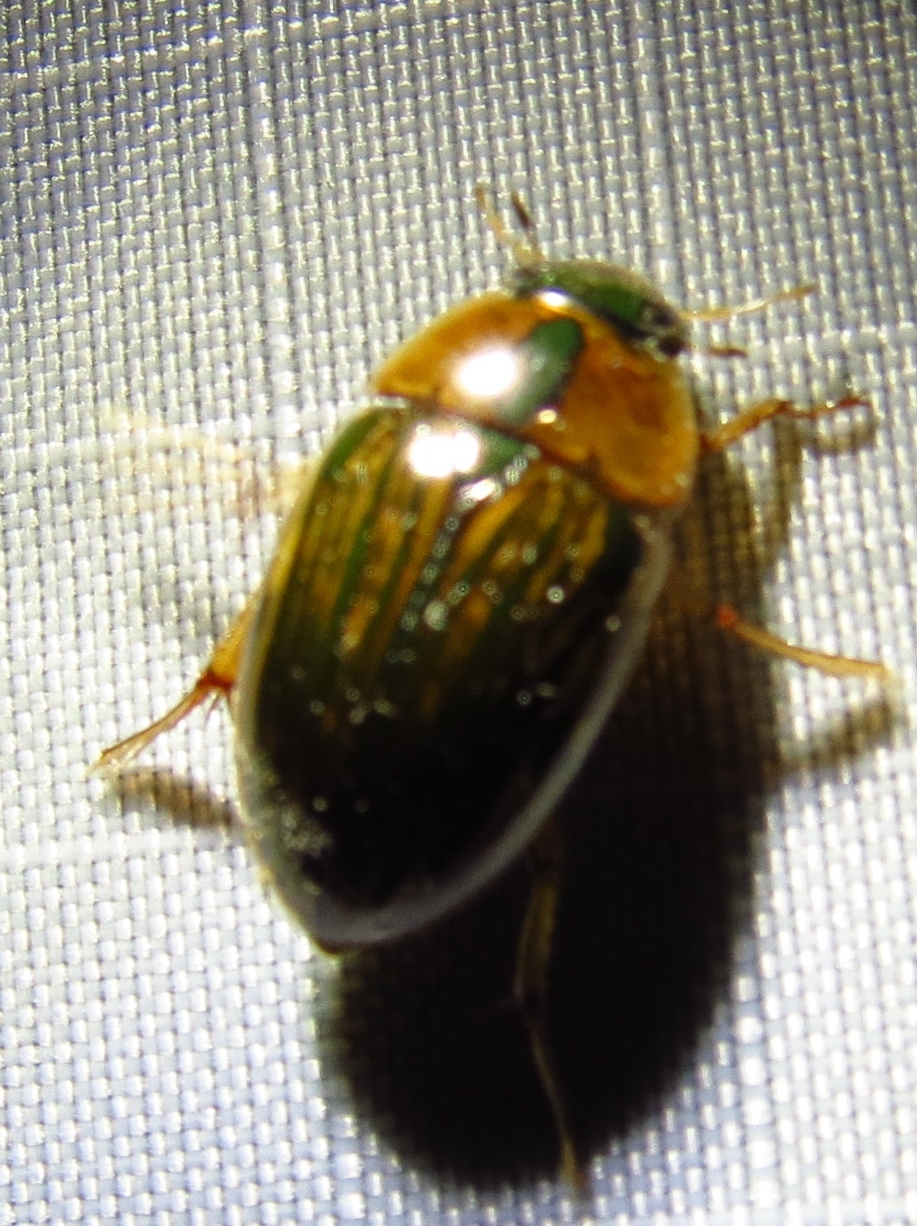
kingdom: Animalia
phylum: Arthropoda
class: Insecta
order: Coleoptera
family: Hydrophilidae
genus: Tropisternus
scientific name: Tropisternus collaris
